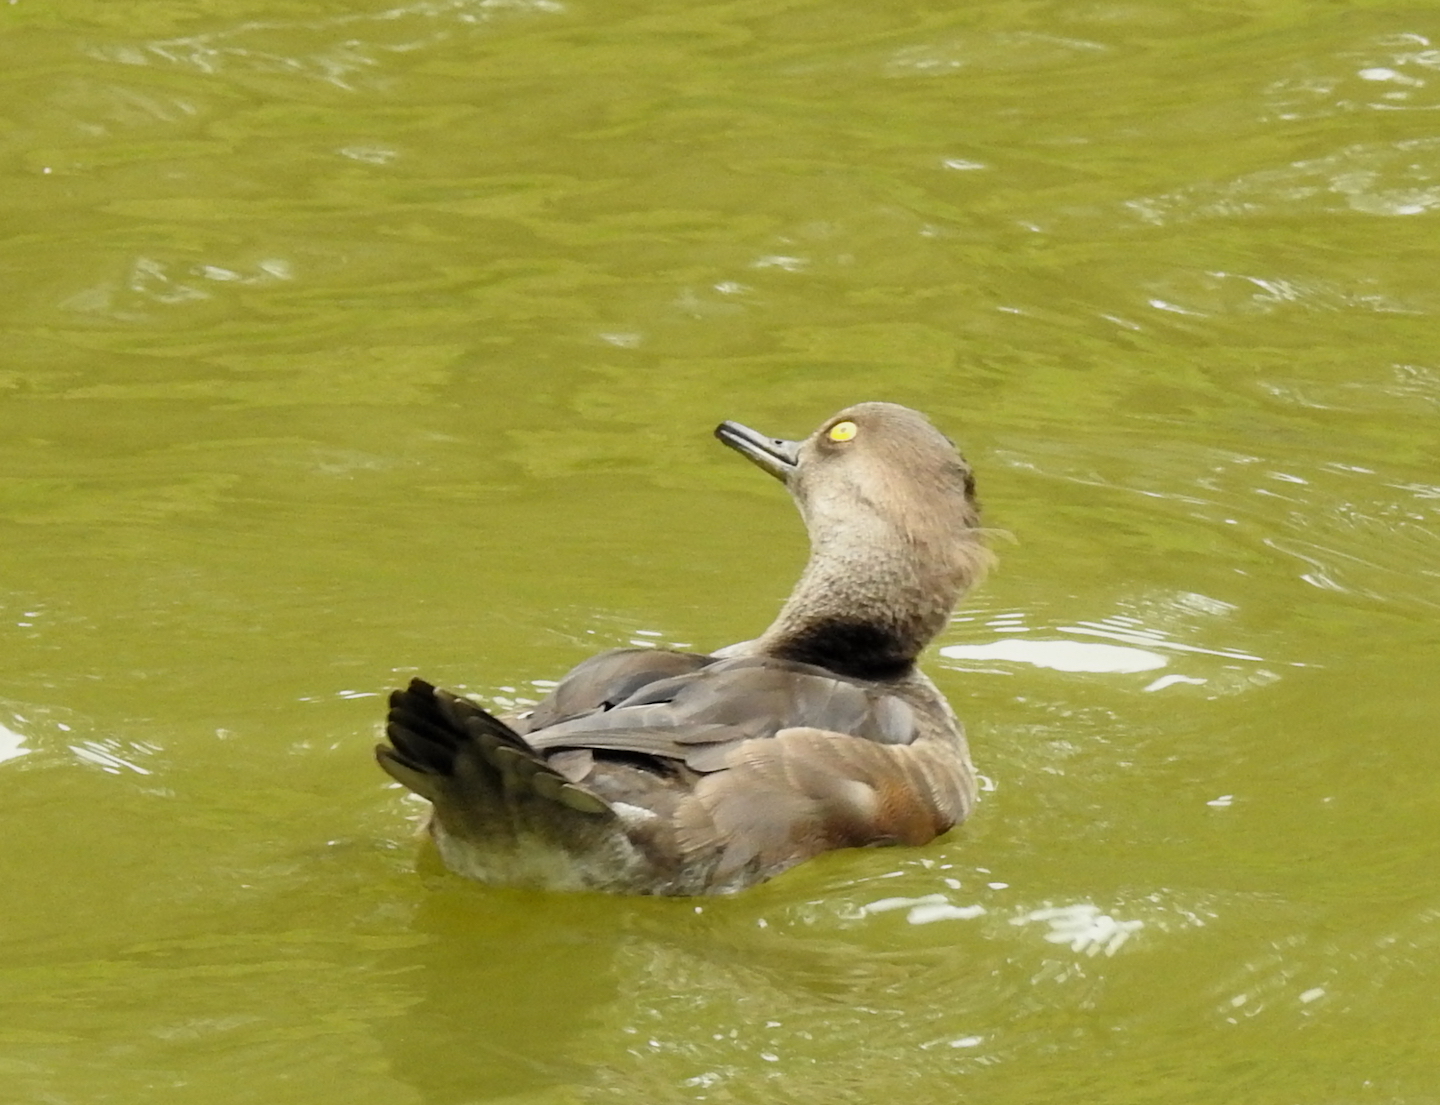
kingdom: Animalia
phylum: Chordata
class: Aves
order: Anseriformes
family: Anatidae
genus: Lophodytes
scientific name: Lophodytes cucullatus
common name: Hooded merganser
